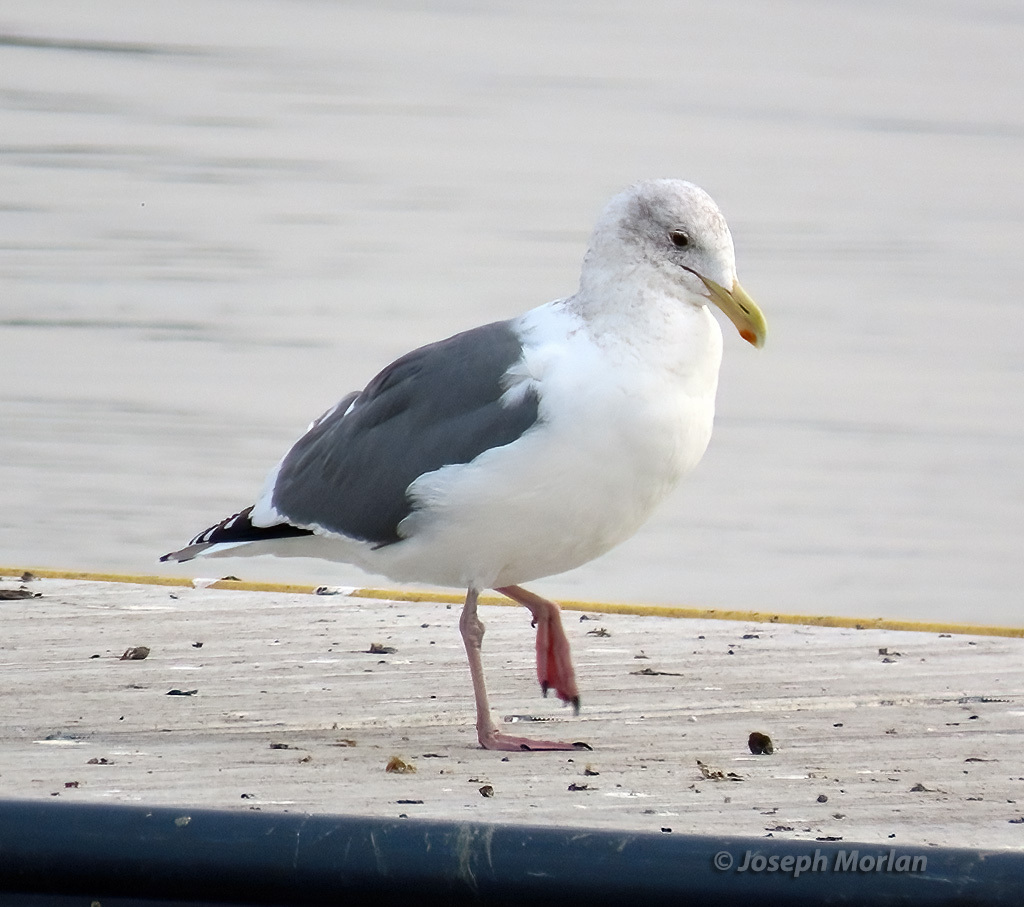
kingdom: Animalia
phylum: Chordata
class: Aves
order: Charadriiformes
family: Laridae
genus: Larus
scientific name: Larus occidentalis
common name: Western gull
